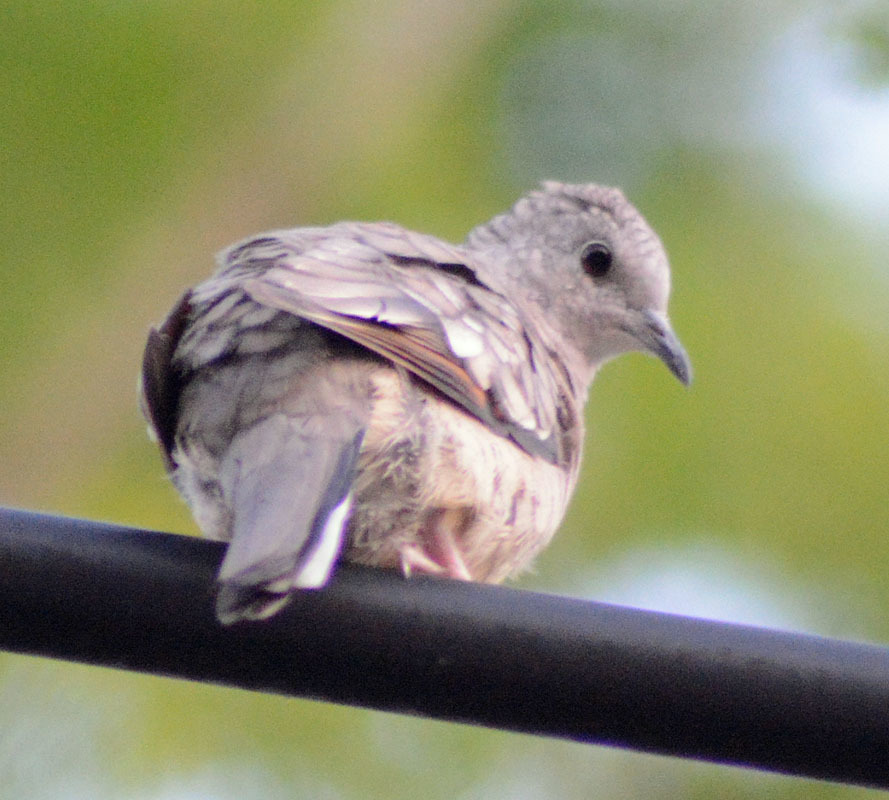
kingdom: Animalia
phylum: Chordata
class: Aves
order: Columbiformes
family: Columbidae
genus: Columbina
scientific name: Columbina inca
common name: Inca dove
